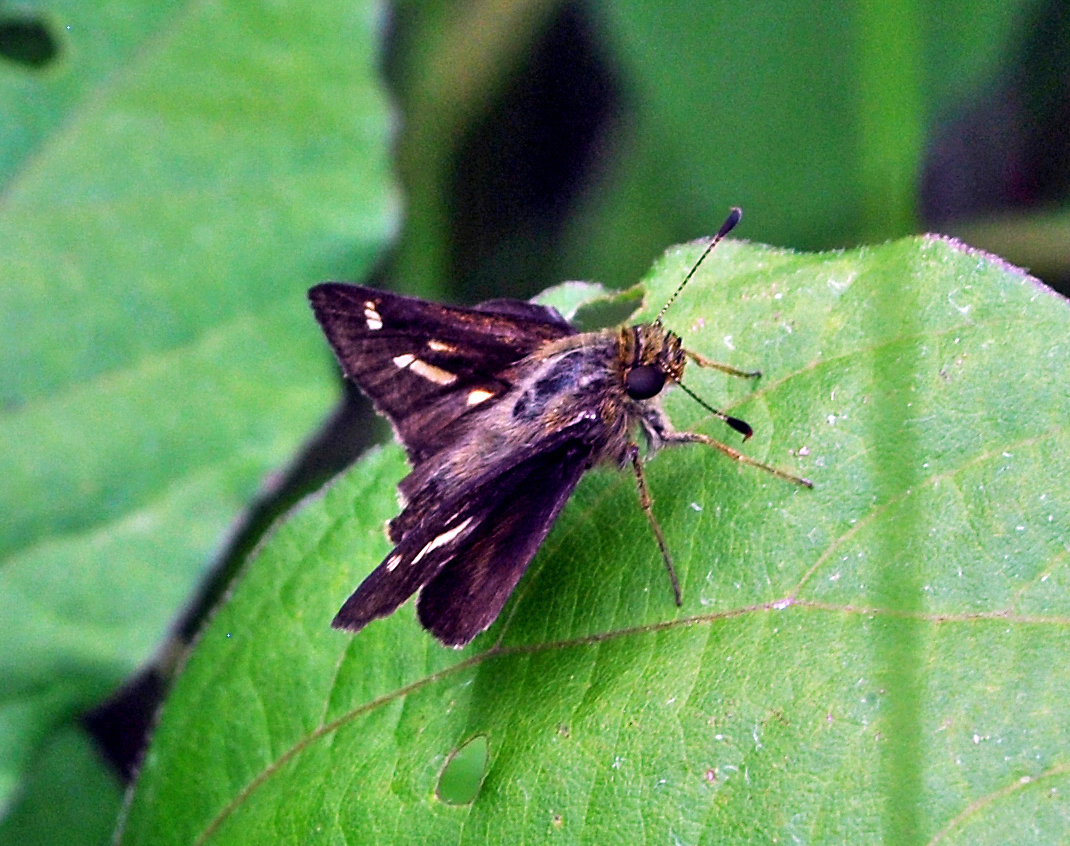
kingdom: Animalia
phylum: Arthropoda
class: Insecta
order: Lepidoptera
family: Hesperiidae
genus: Vernia
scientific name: Vernia verna
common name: Little glassywing
